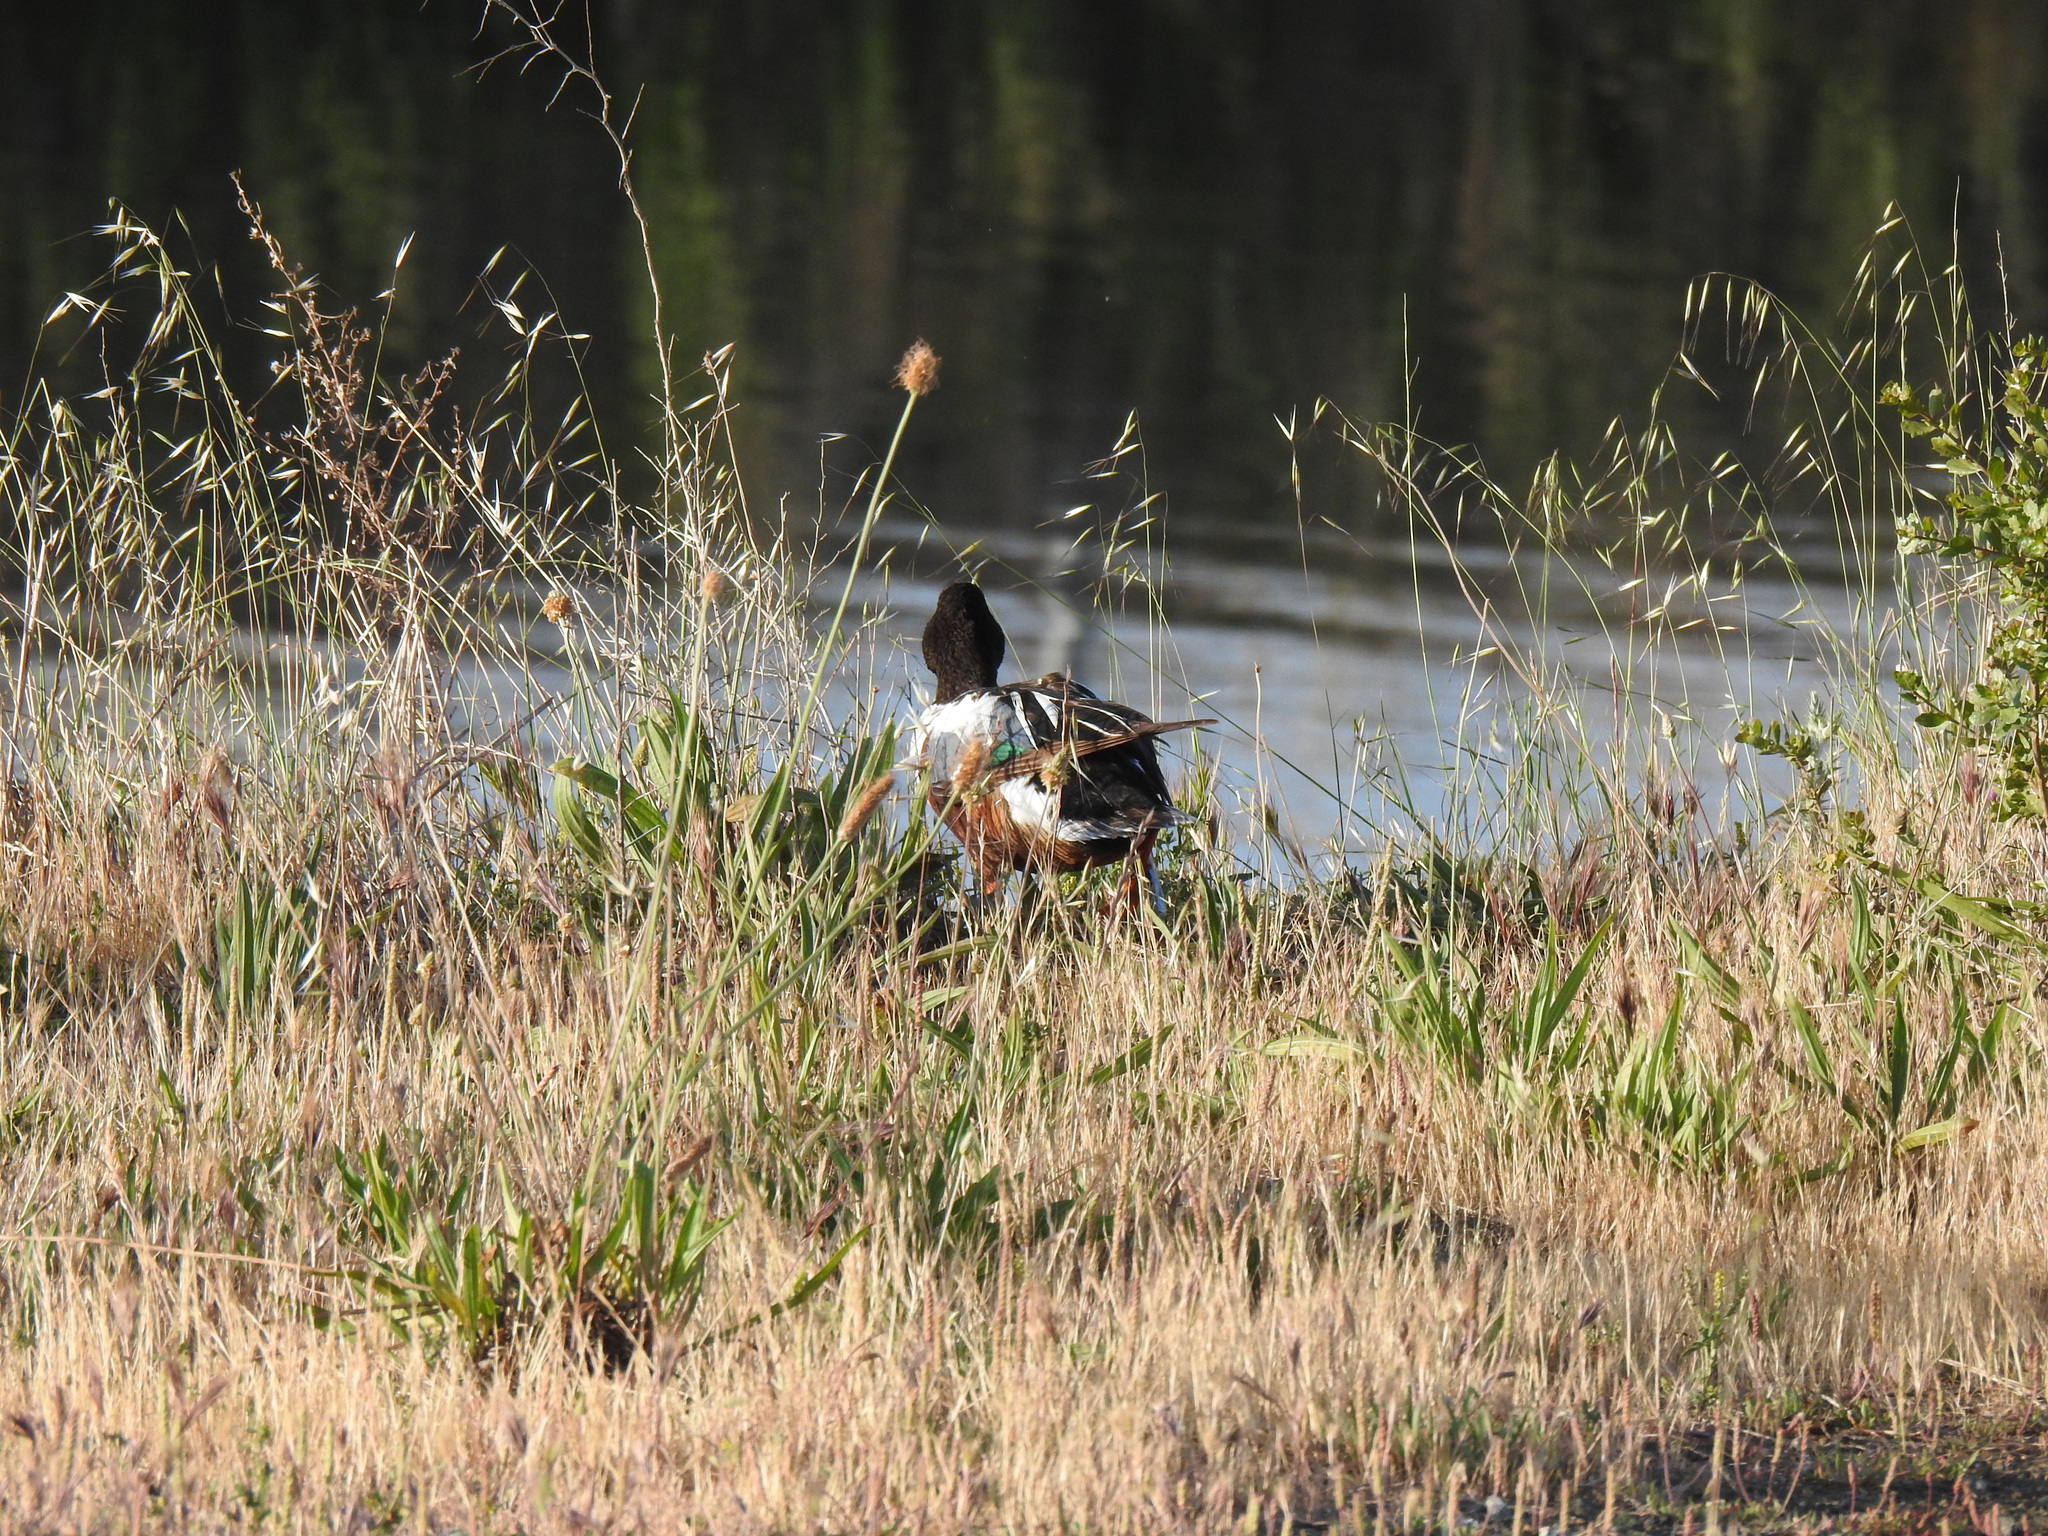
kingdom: Animalia
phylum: Chordata
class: Aves
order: Anseriformes
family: Anatidae
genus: Spatula
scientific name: Spatula clypeata
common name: Northern shoveler
